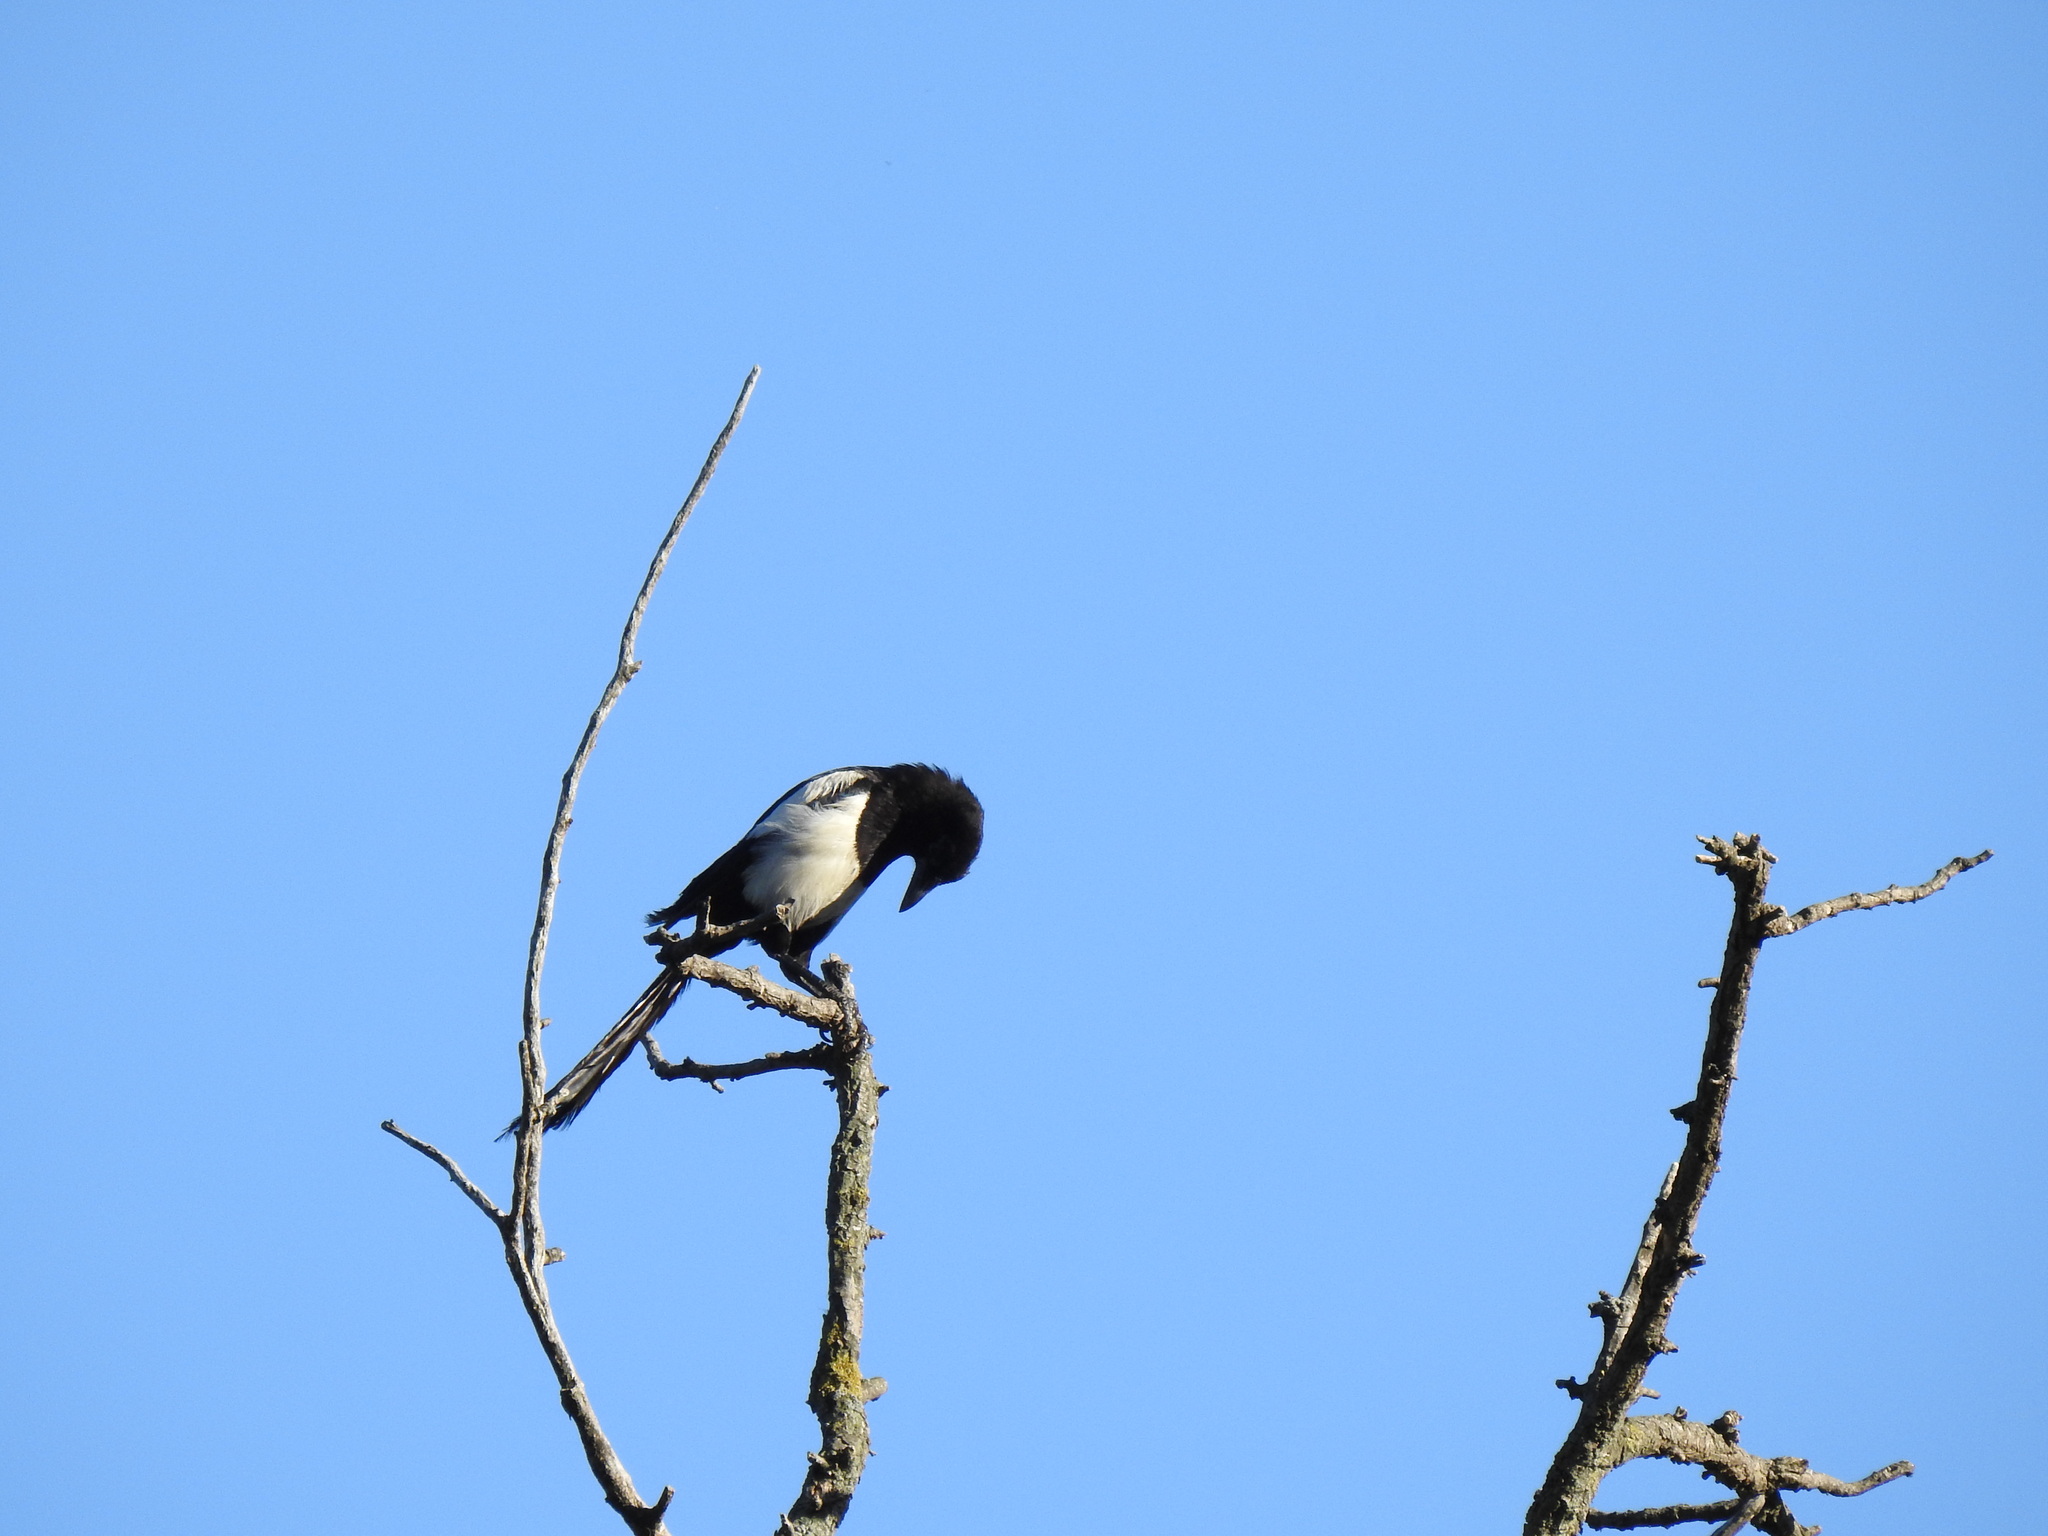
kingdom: Animalia
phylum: Chordata
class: Aves
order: Passeriformes
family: Corvidae
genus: Pica
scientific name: Pica pica
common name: Eurasian magpie
